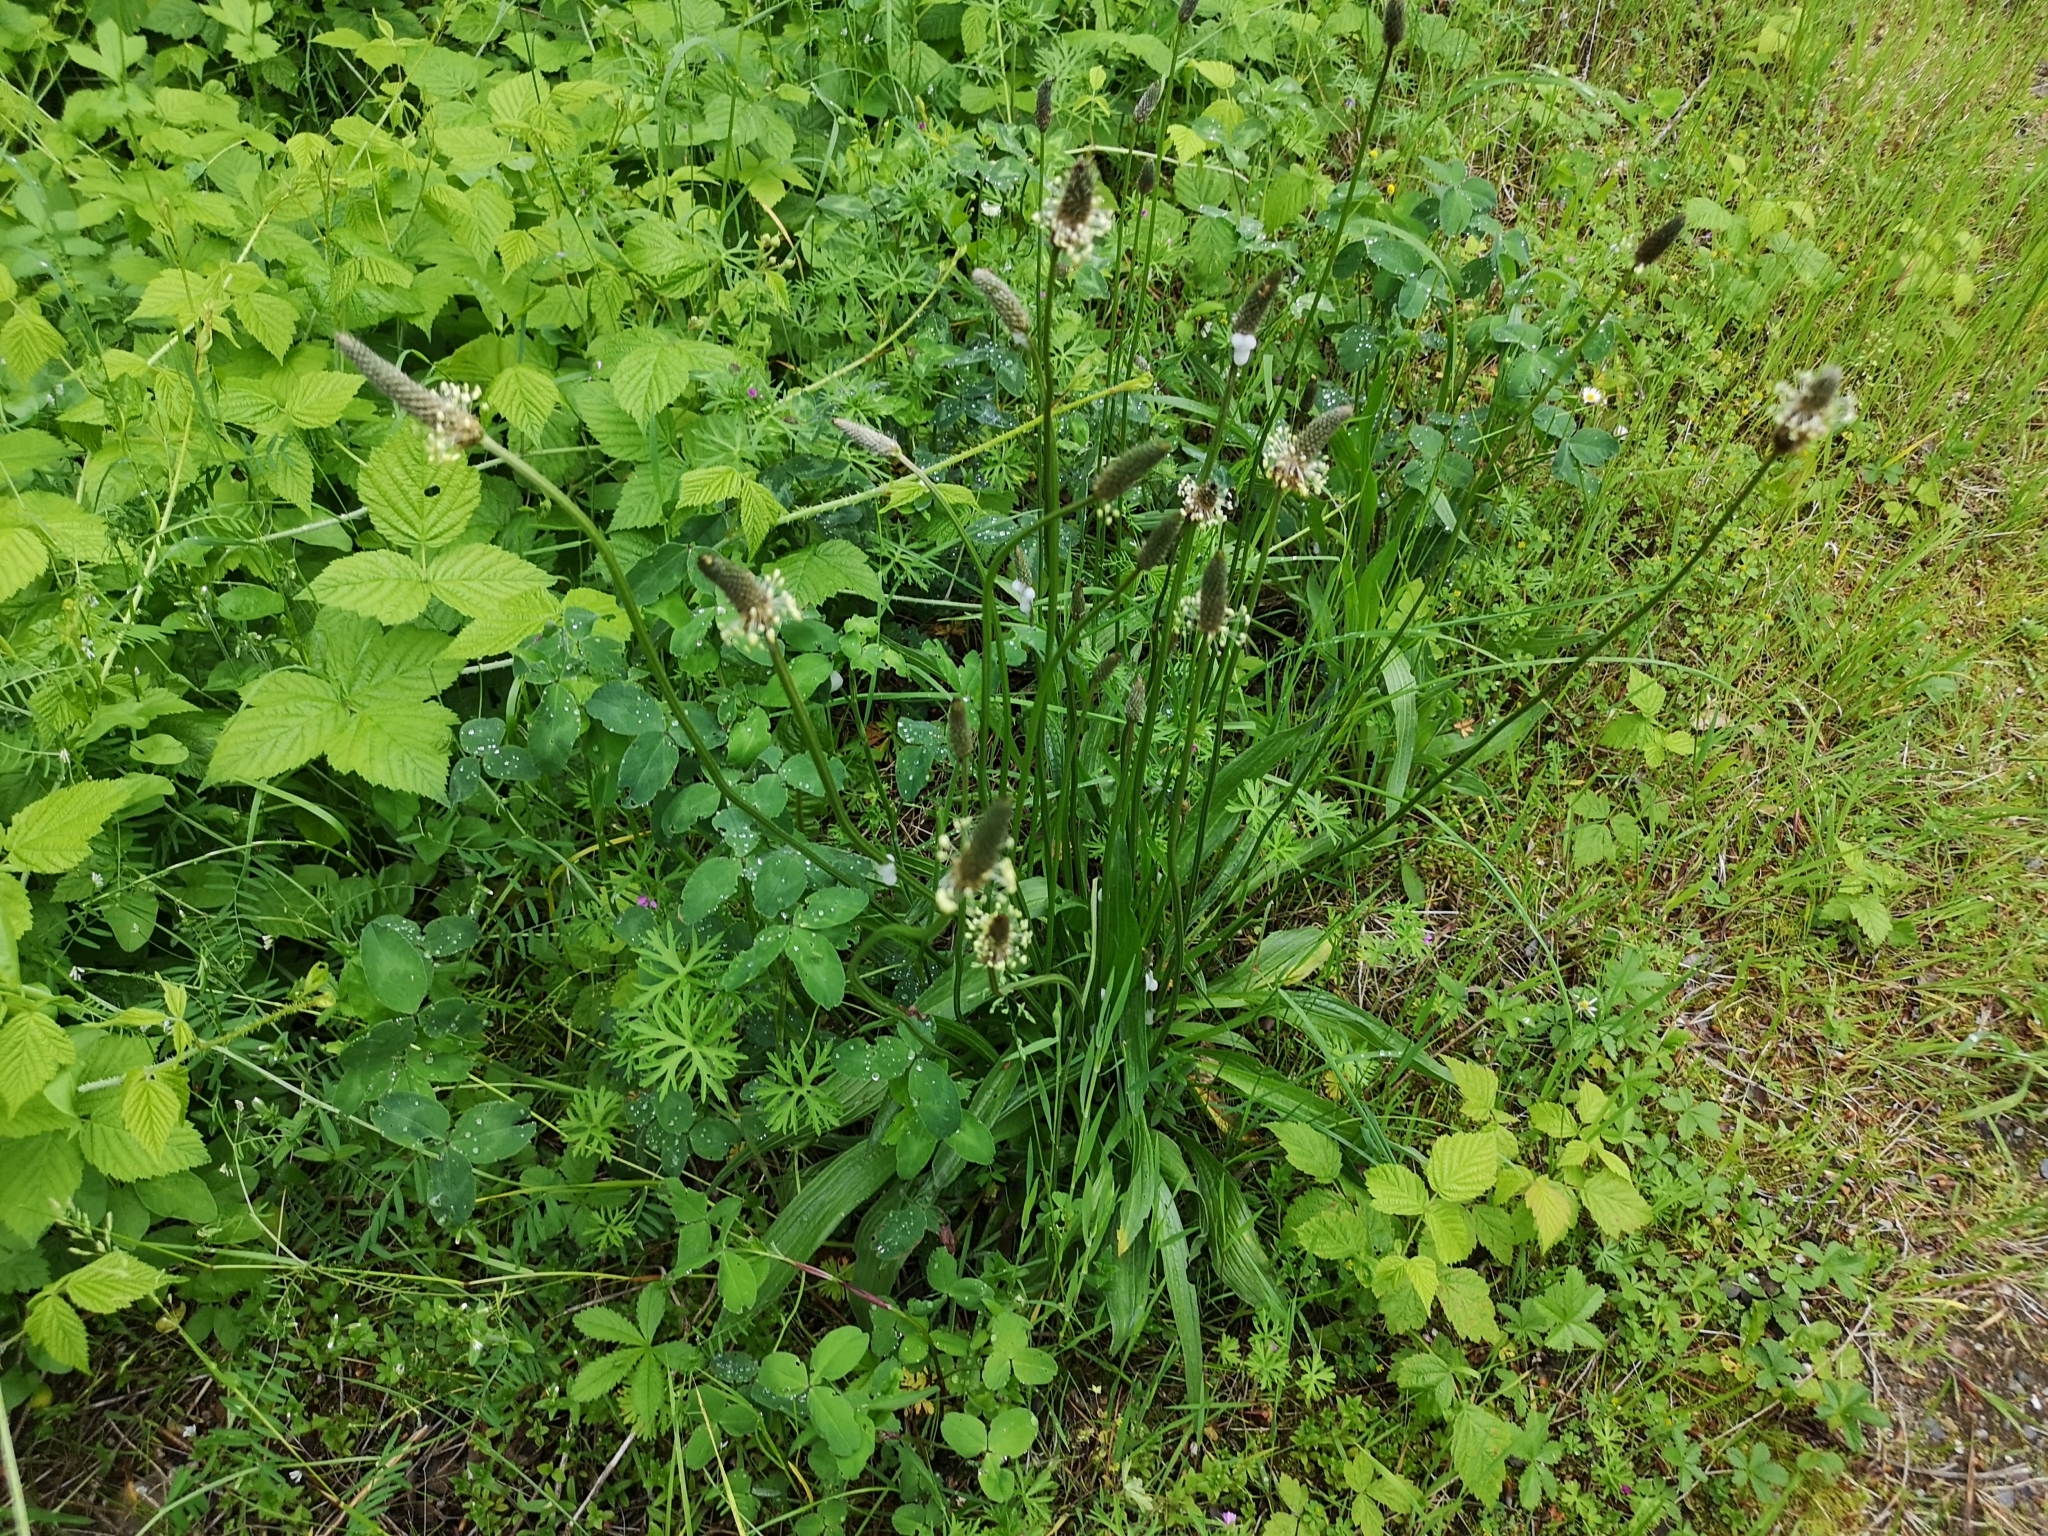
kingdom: Plantae
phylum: Tracheophyta
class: Magnoliopsida
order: Lamiales
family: Plantaginaceae
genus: Plantago
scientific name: Plantago lanceolata
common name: Ribwort plantain
